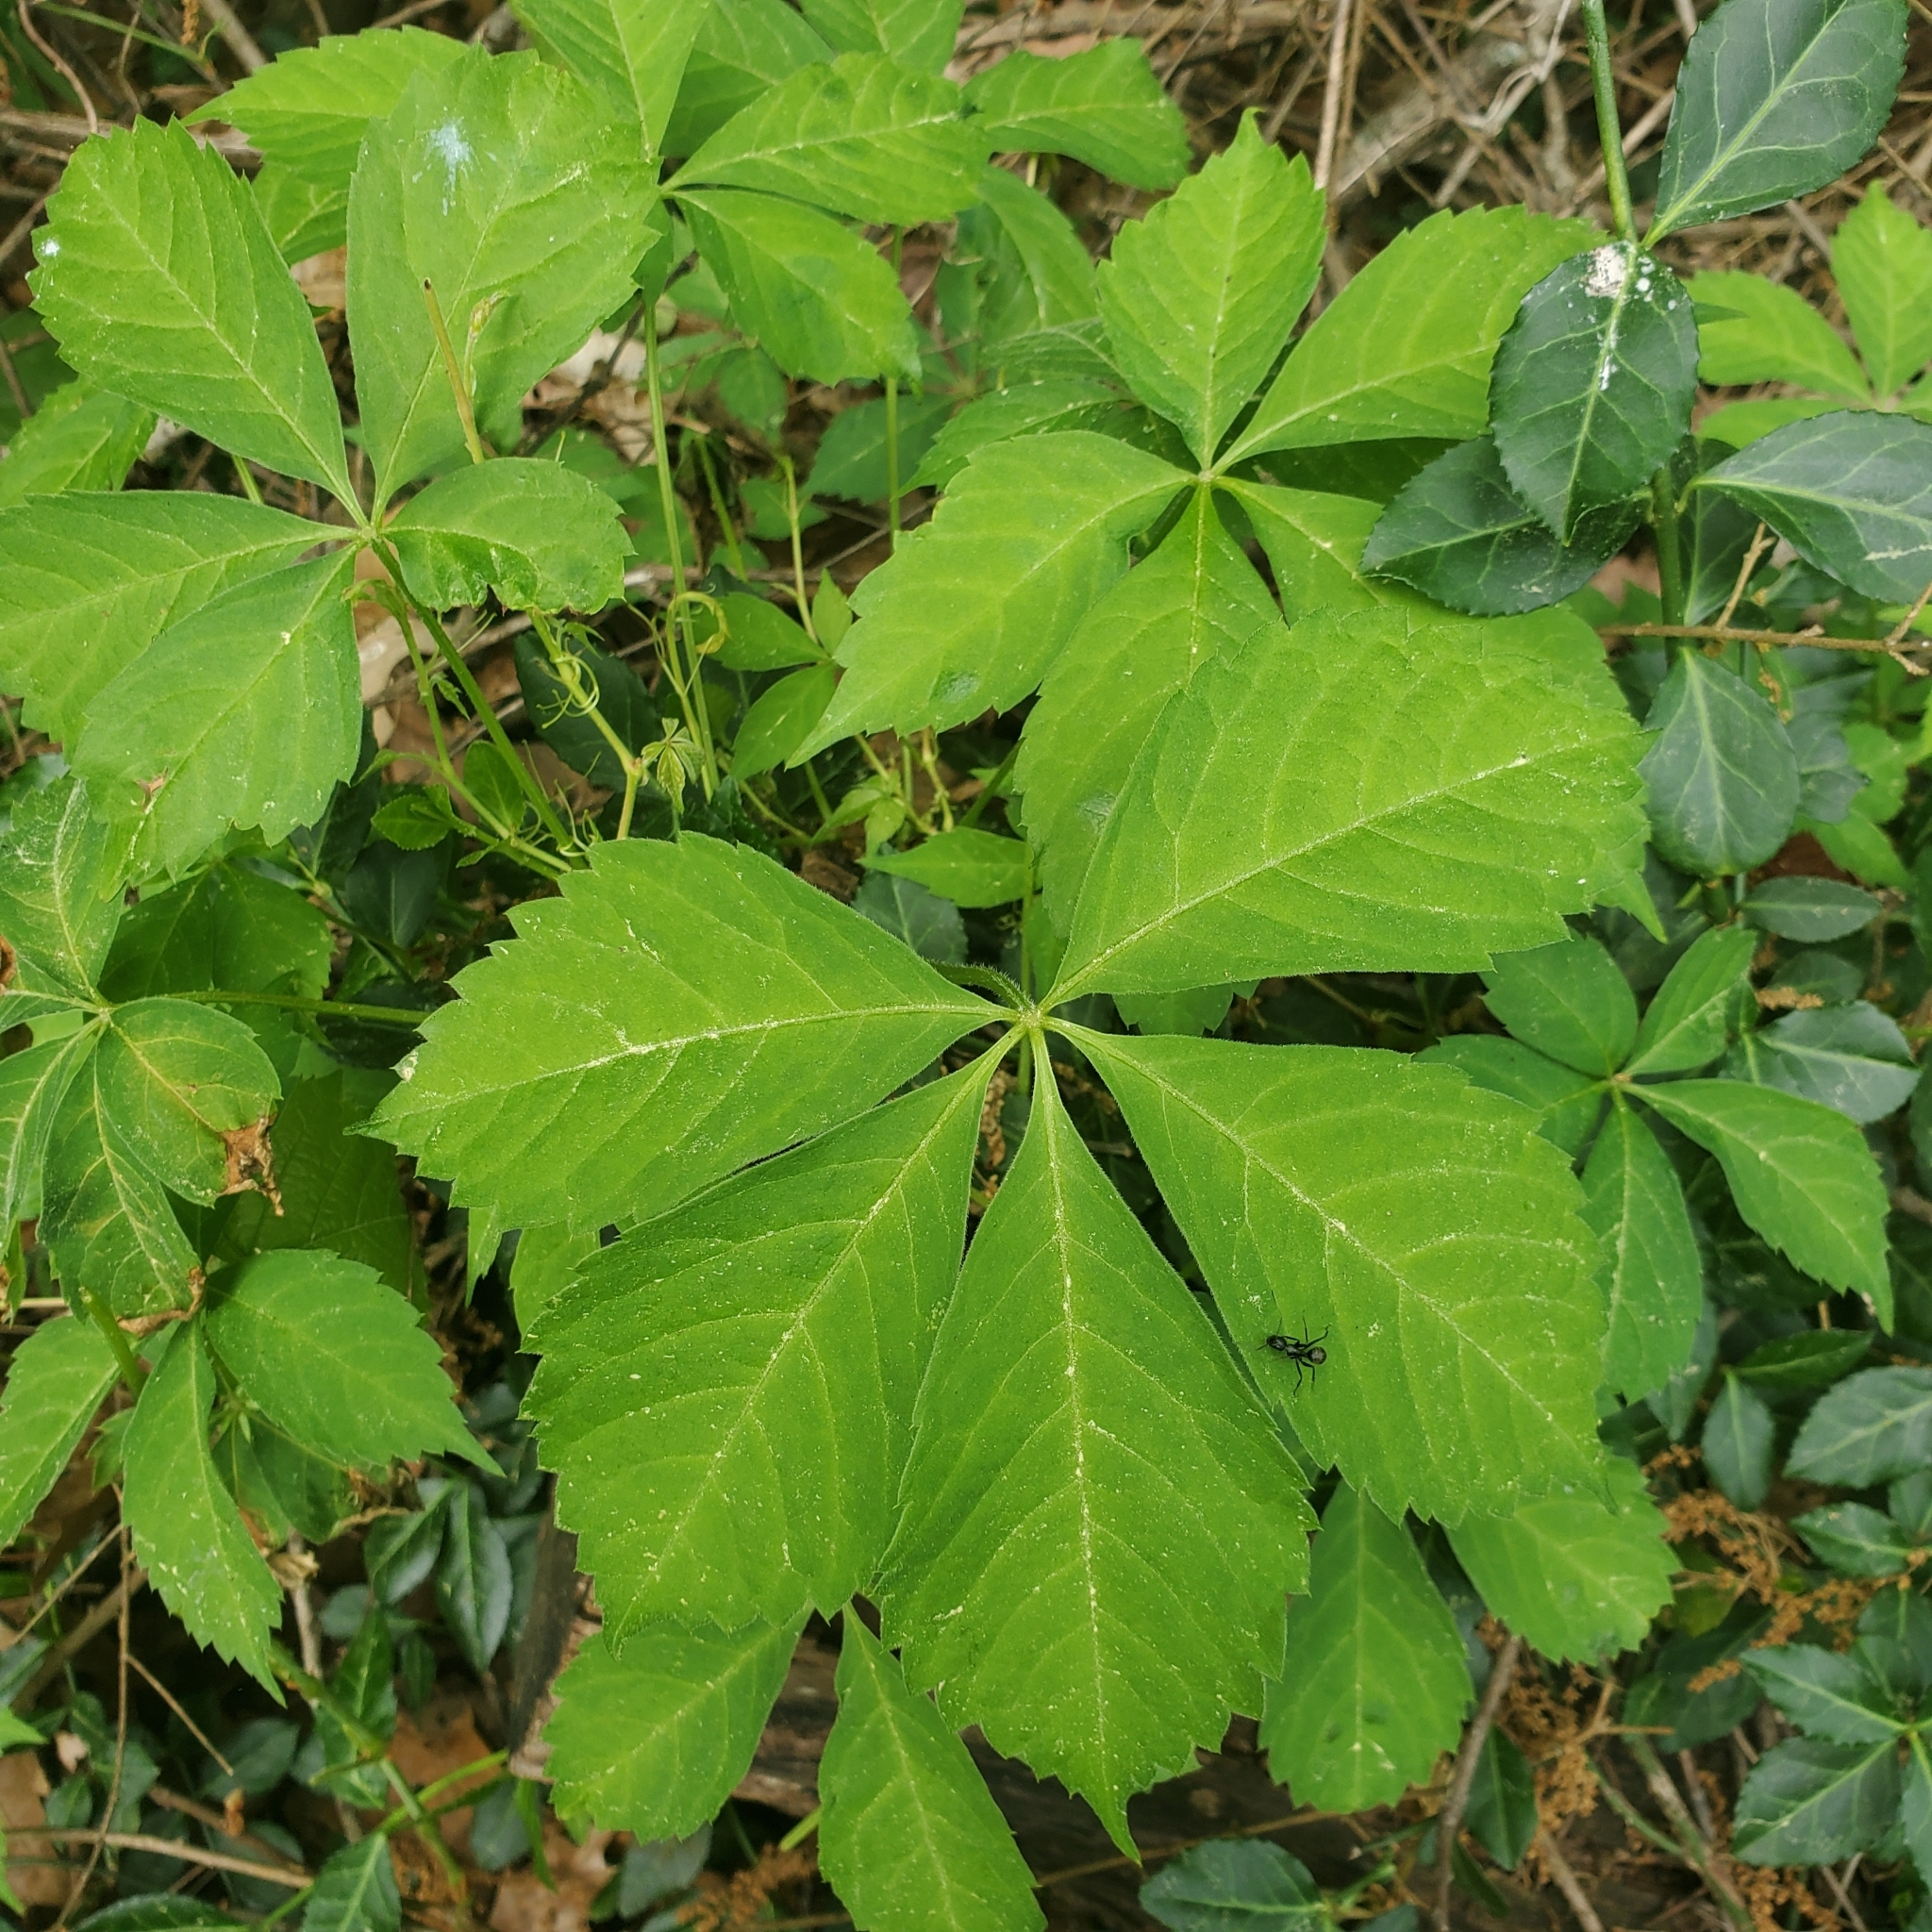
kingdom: Plantae
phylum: Tracheophyta
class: Magnoliopsida
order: Vitales
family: Vitaceae
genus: Parthenocissus
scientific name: Parthenocissus quinquefolia
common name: Virginia-creeper
